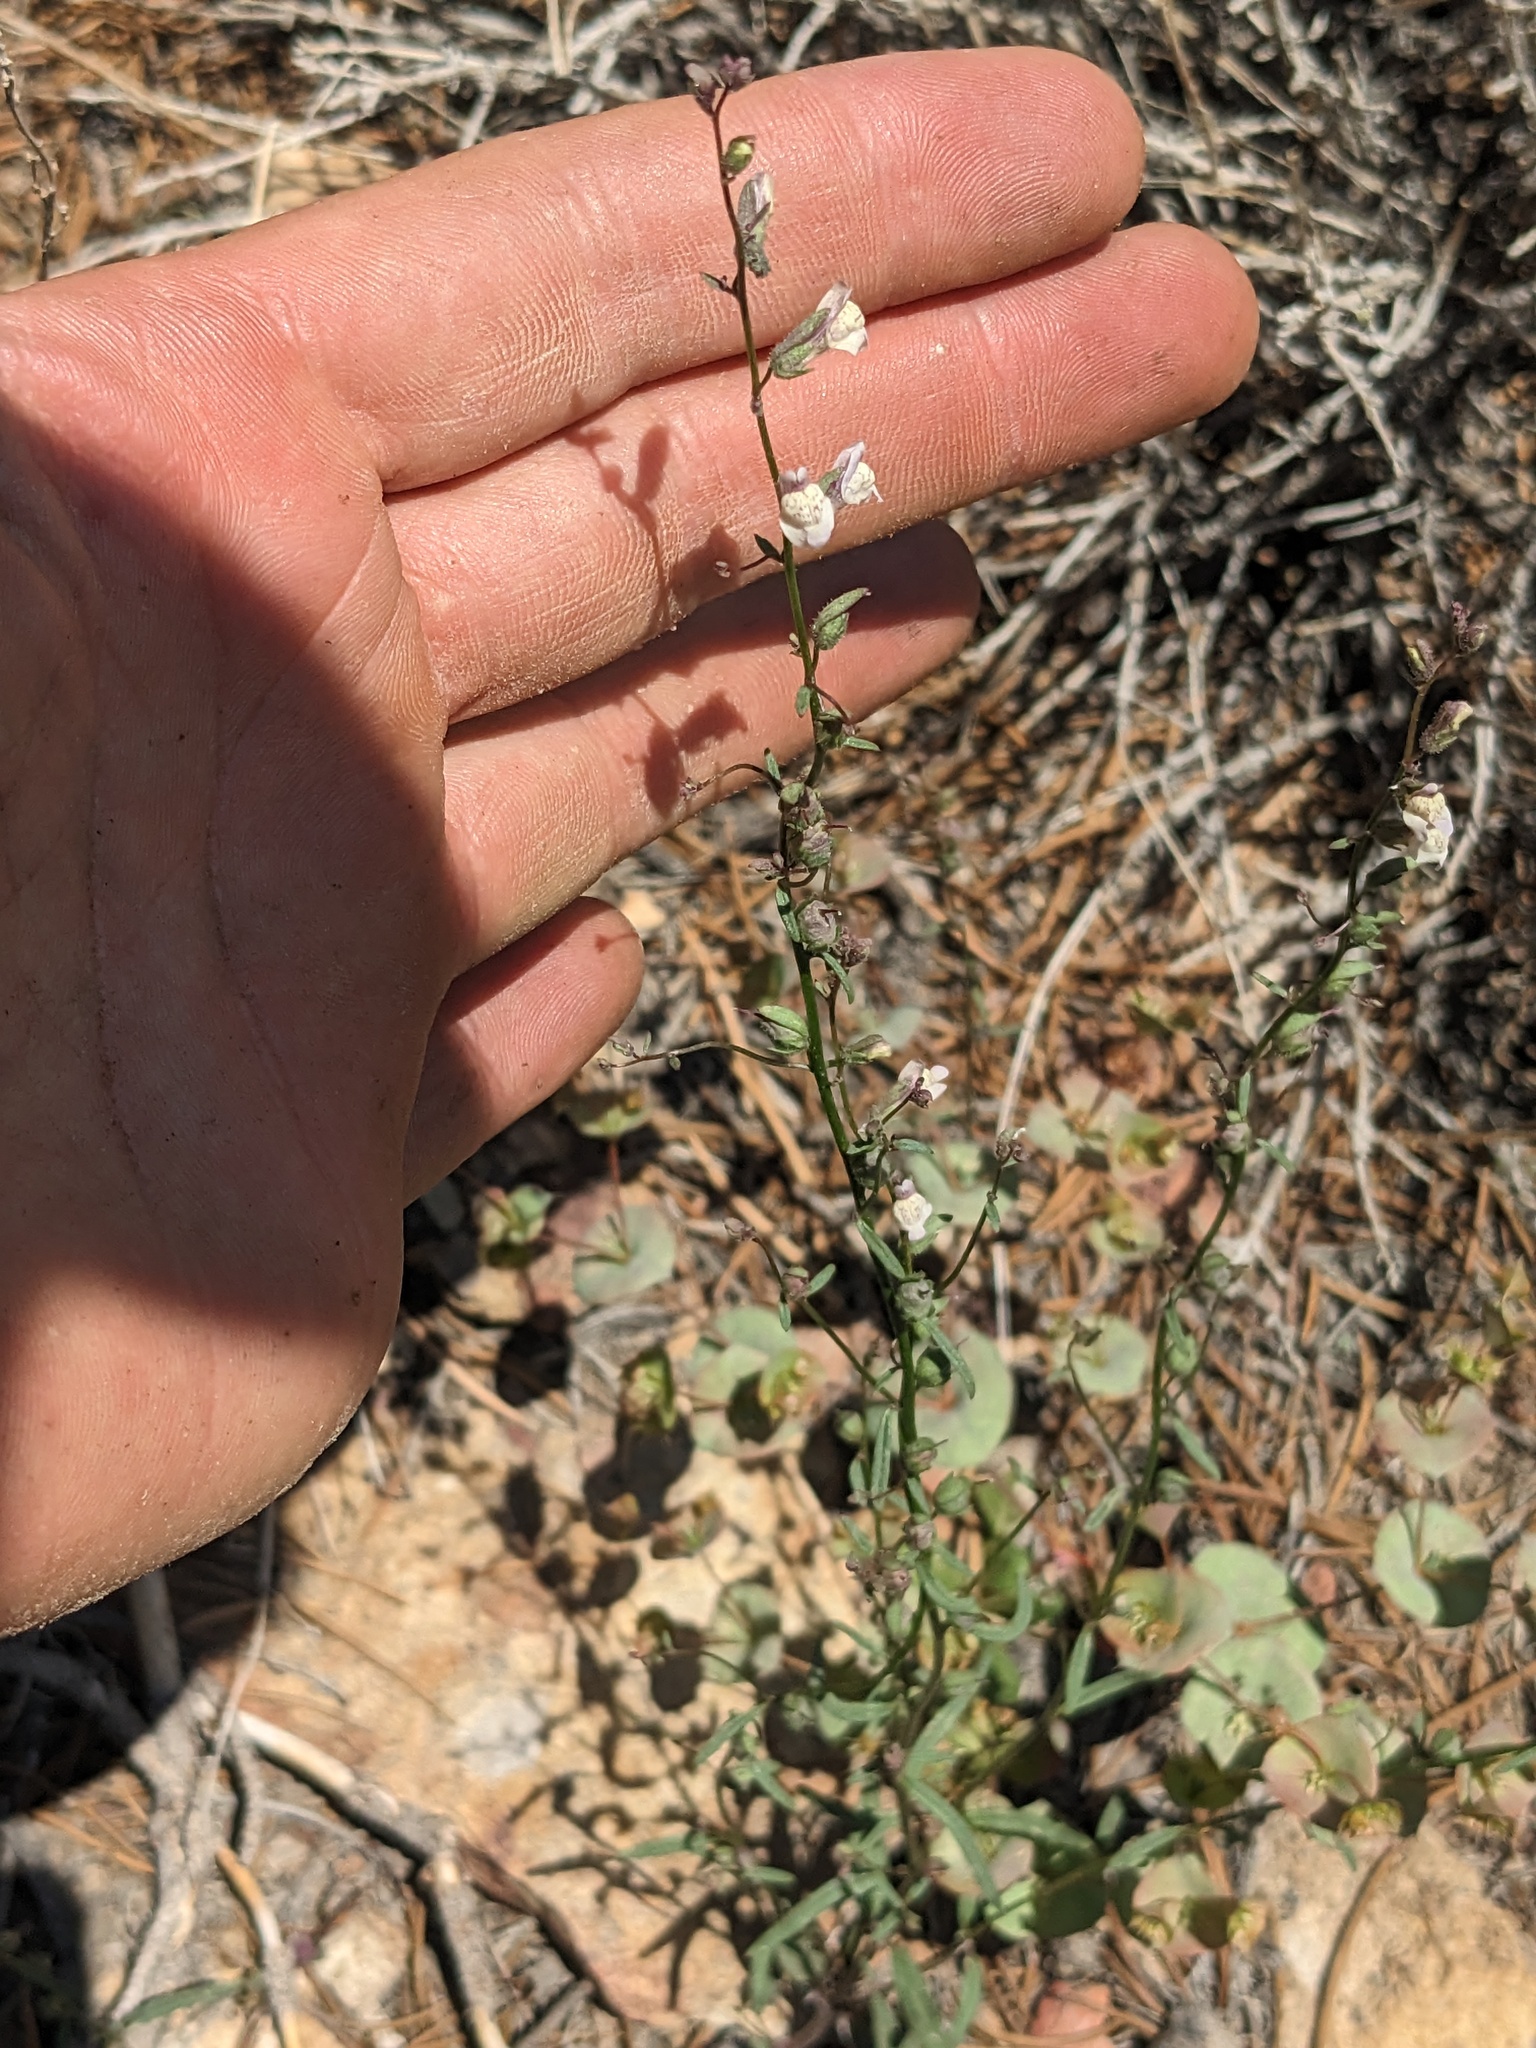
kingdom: Plantae
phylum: Tracheophyta
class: Magnoliopsida
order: Lamiales
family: Plantaginaceae
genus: Sairocarpus
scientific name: Sairocarpus kingii
